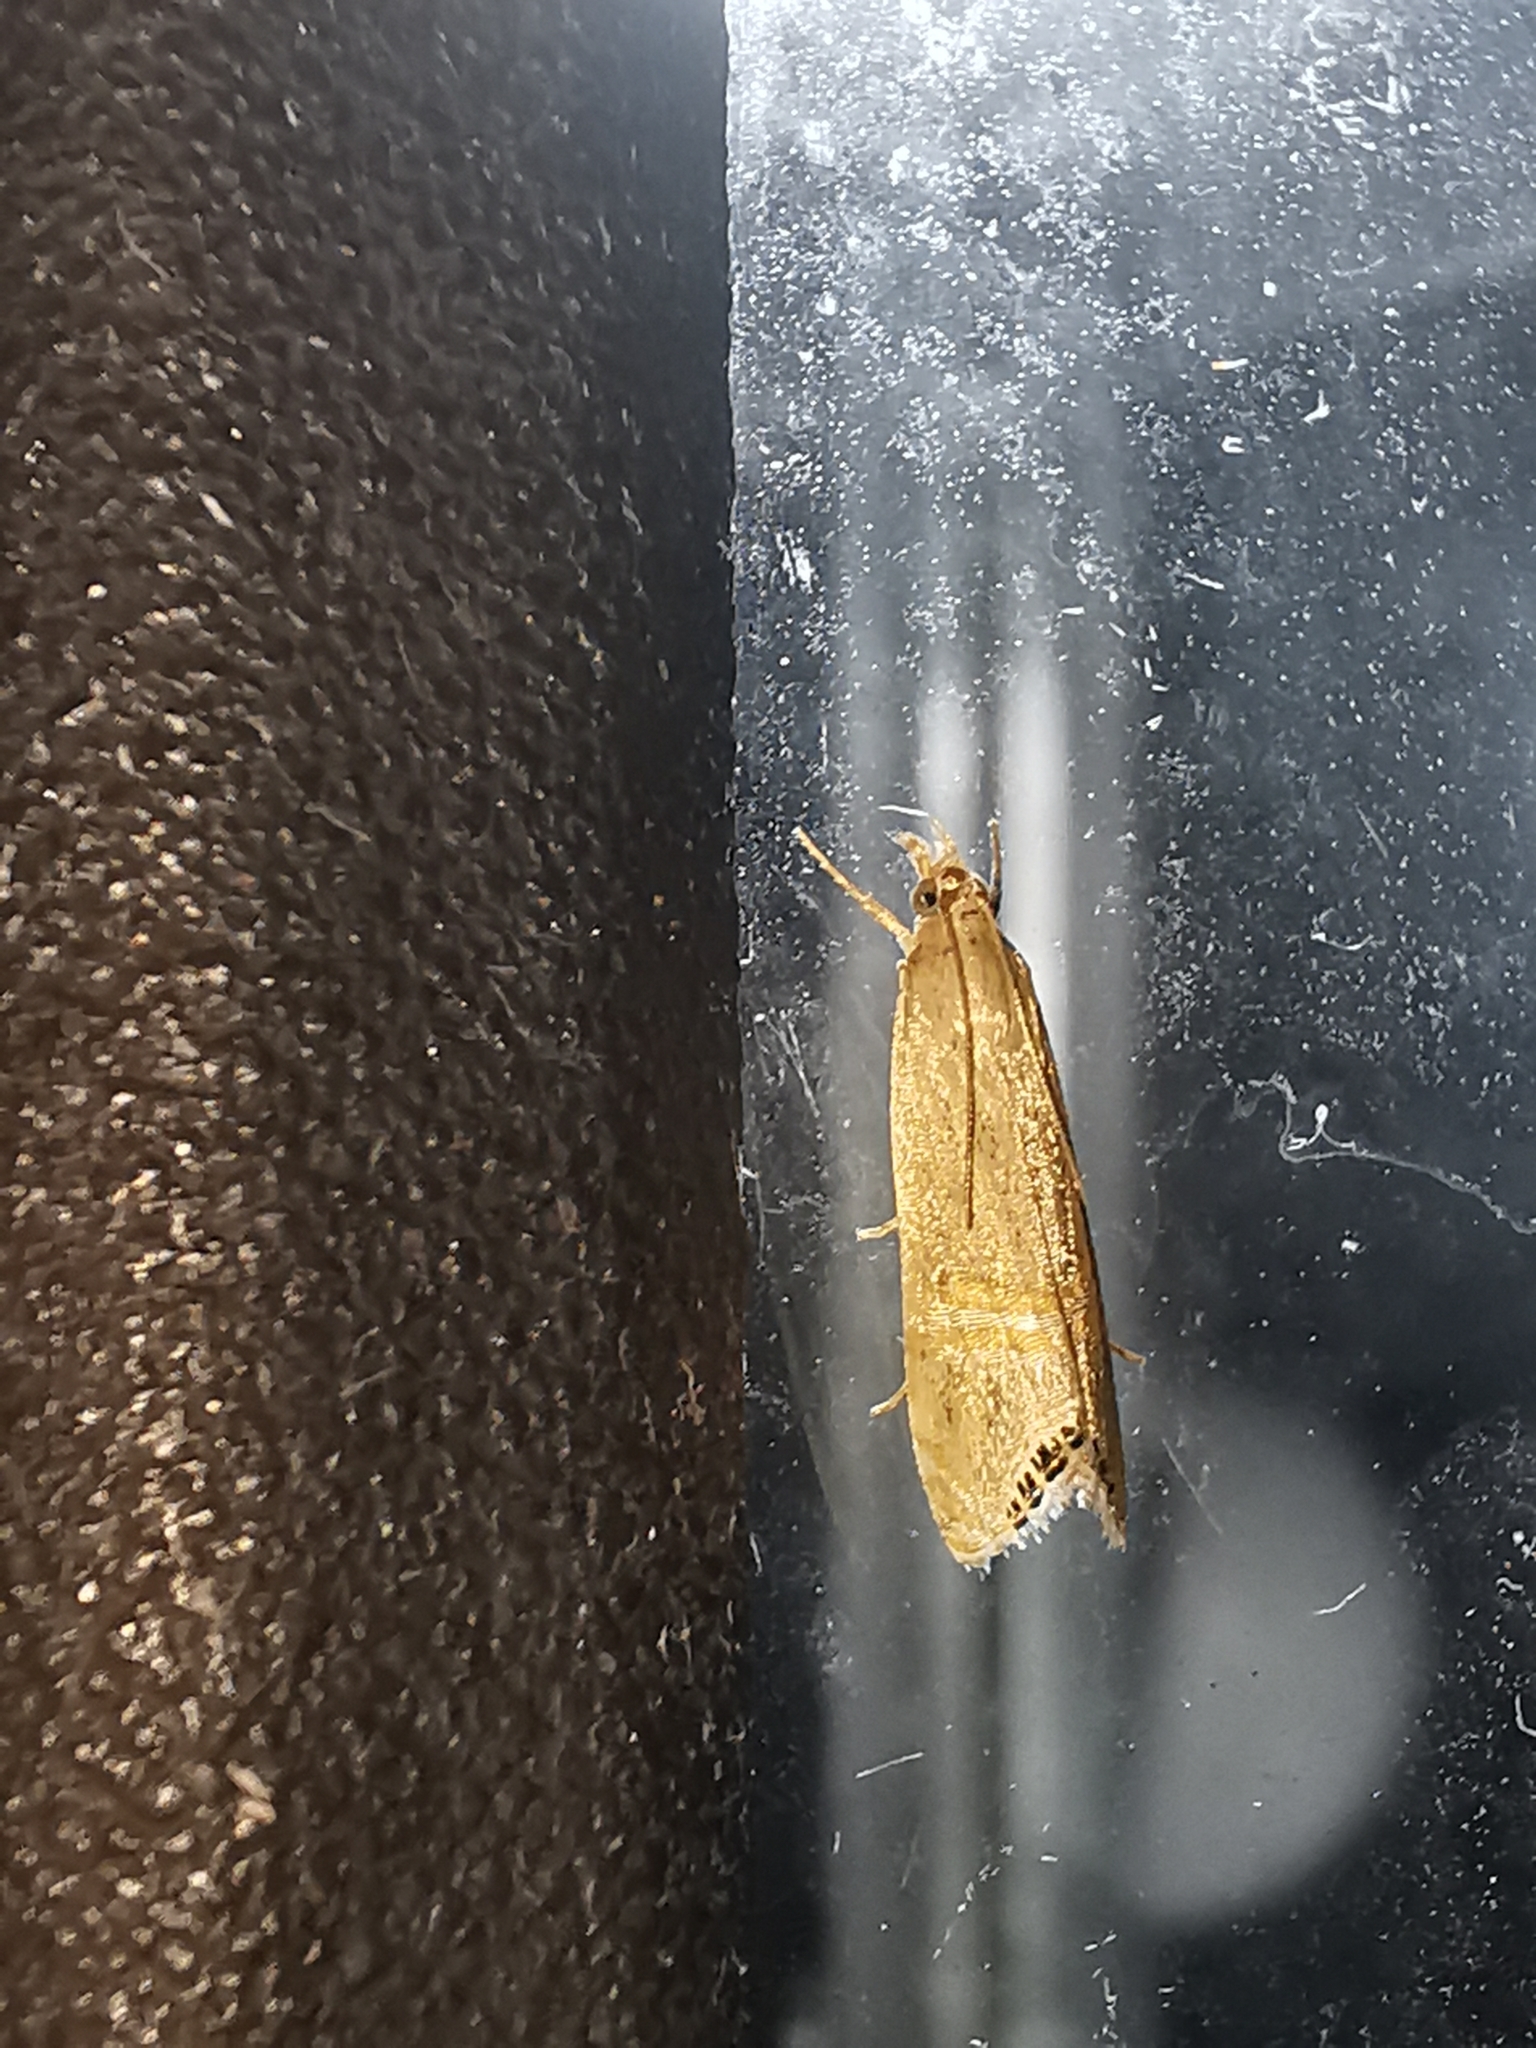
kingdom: Animalia
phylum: Arthropoda
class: Insecta
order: Lepidoptera
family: Crambidae
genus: Euchromius
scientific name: Euchromius ocellea
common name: Necklace veneer moth
